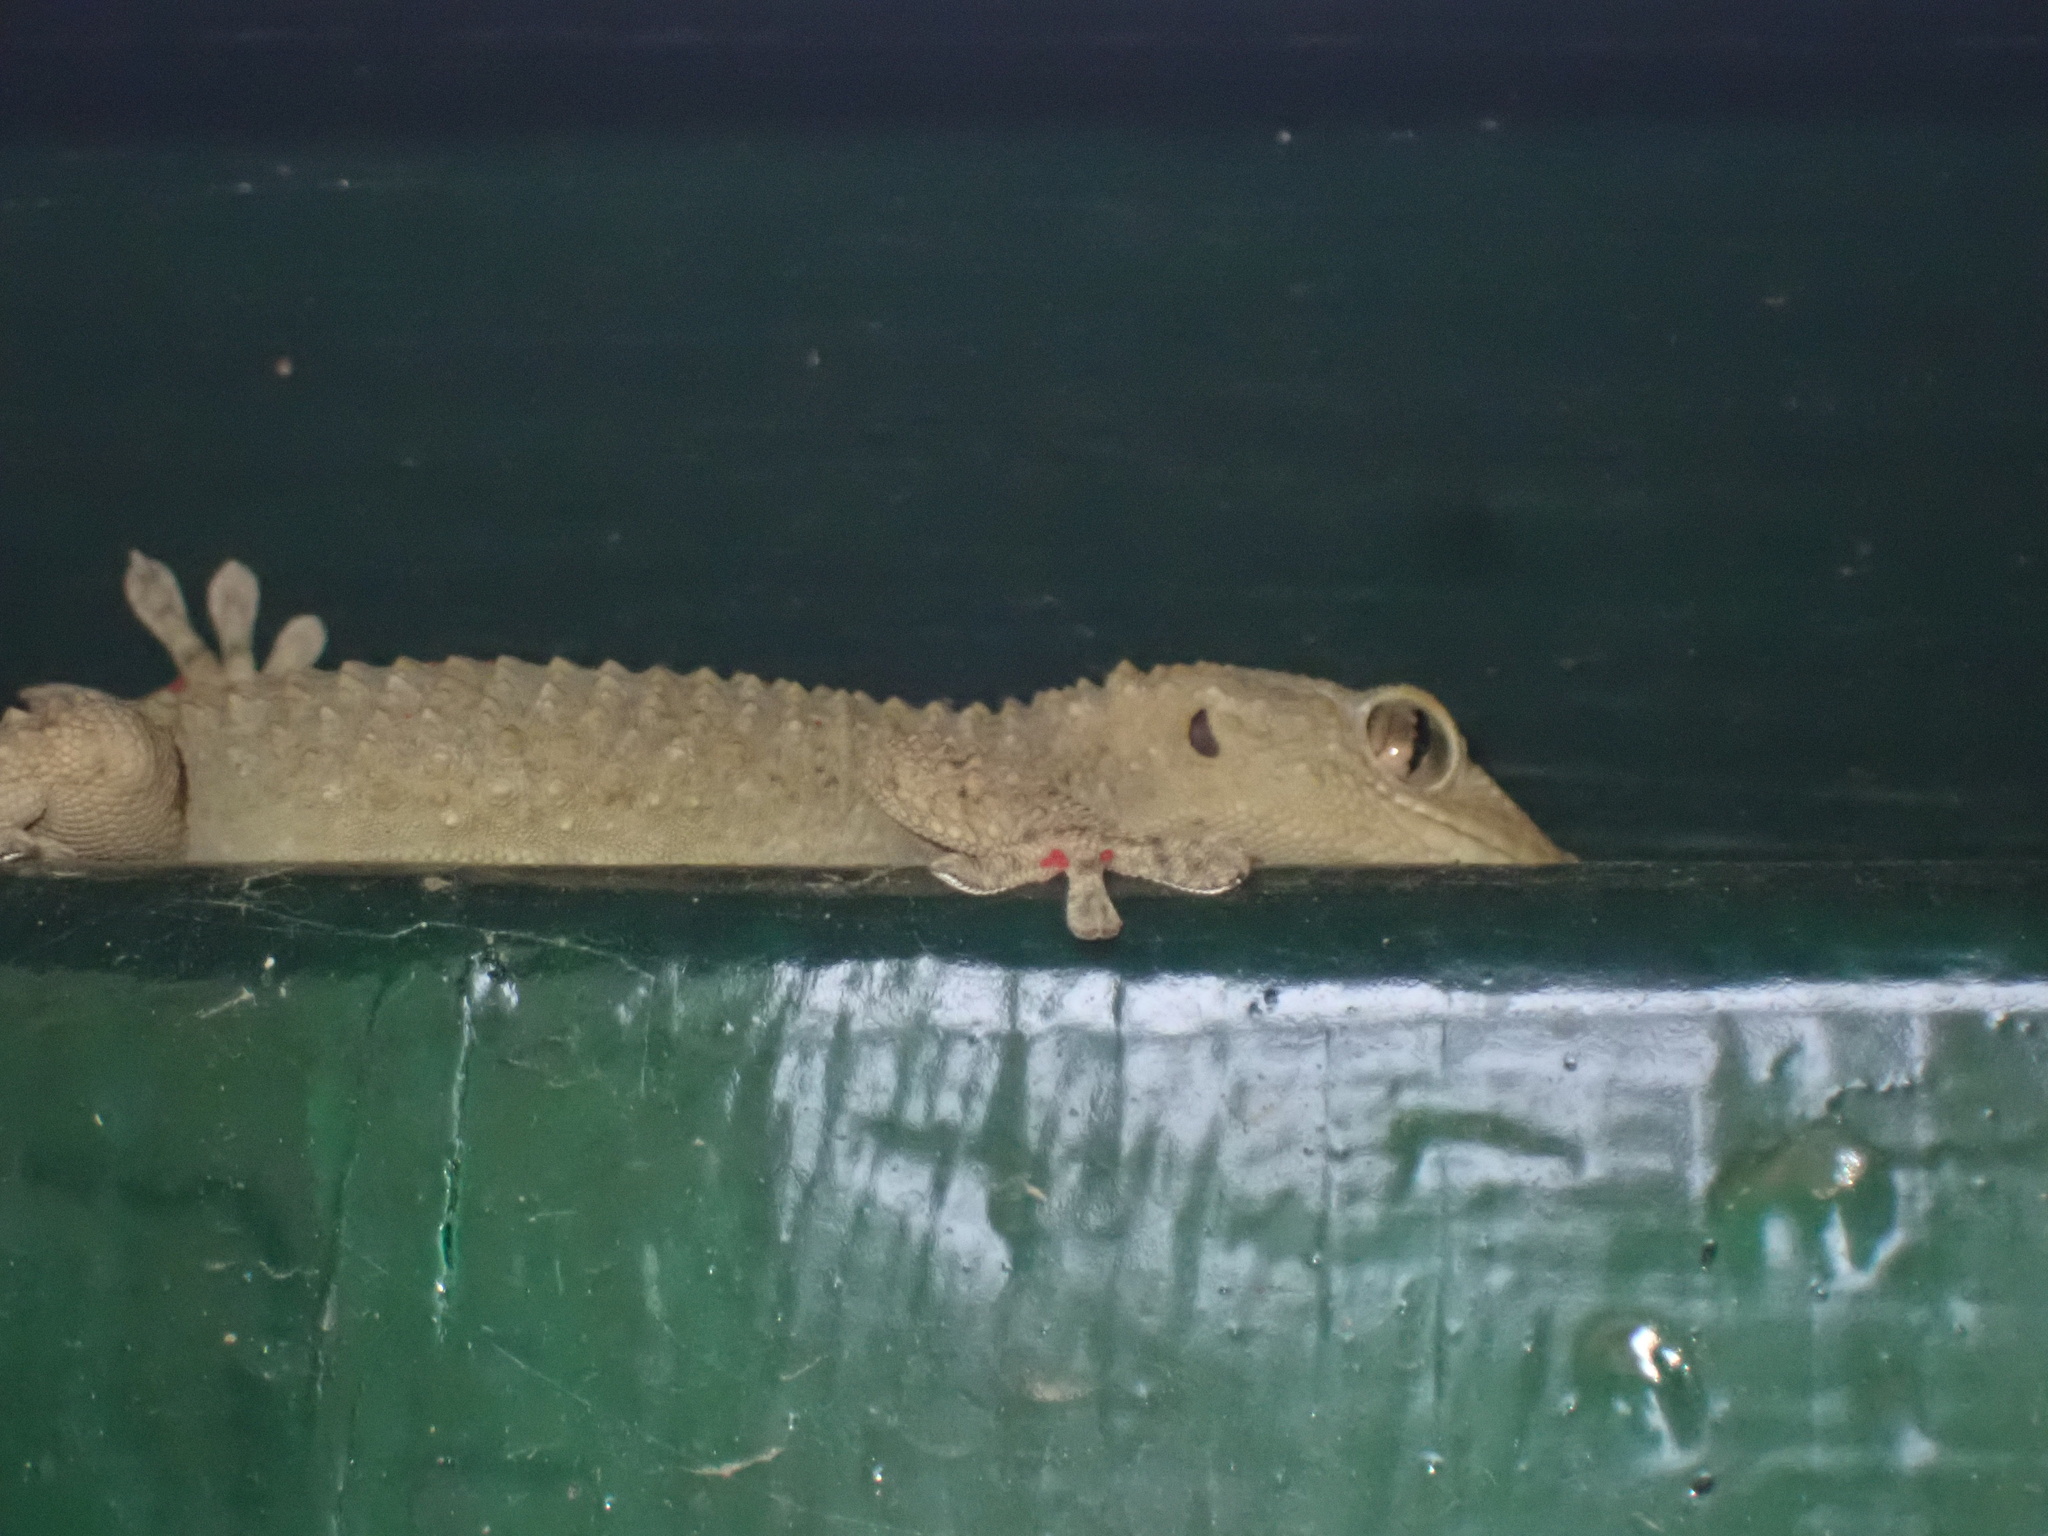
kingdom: Animalia
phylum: Chordata
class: Squamata
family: Phyllodactylidae
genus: Tarentola
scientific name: Tarentola mauritanica
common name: Moorish gecko
